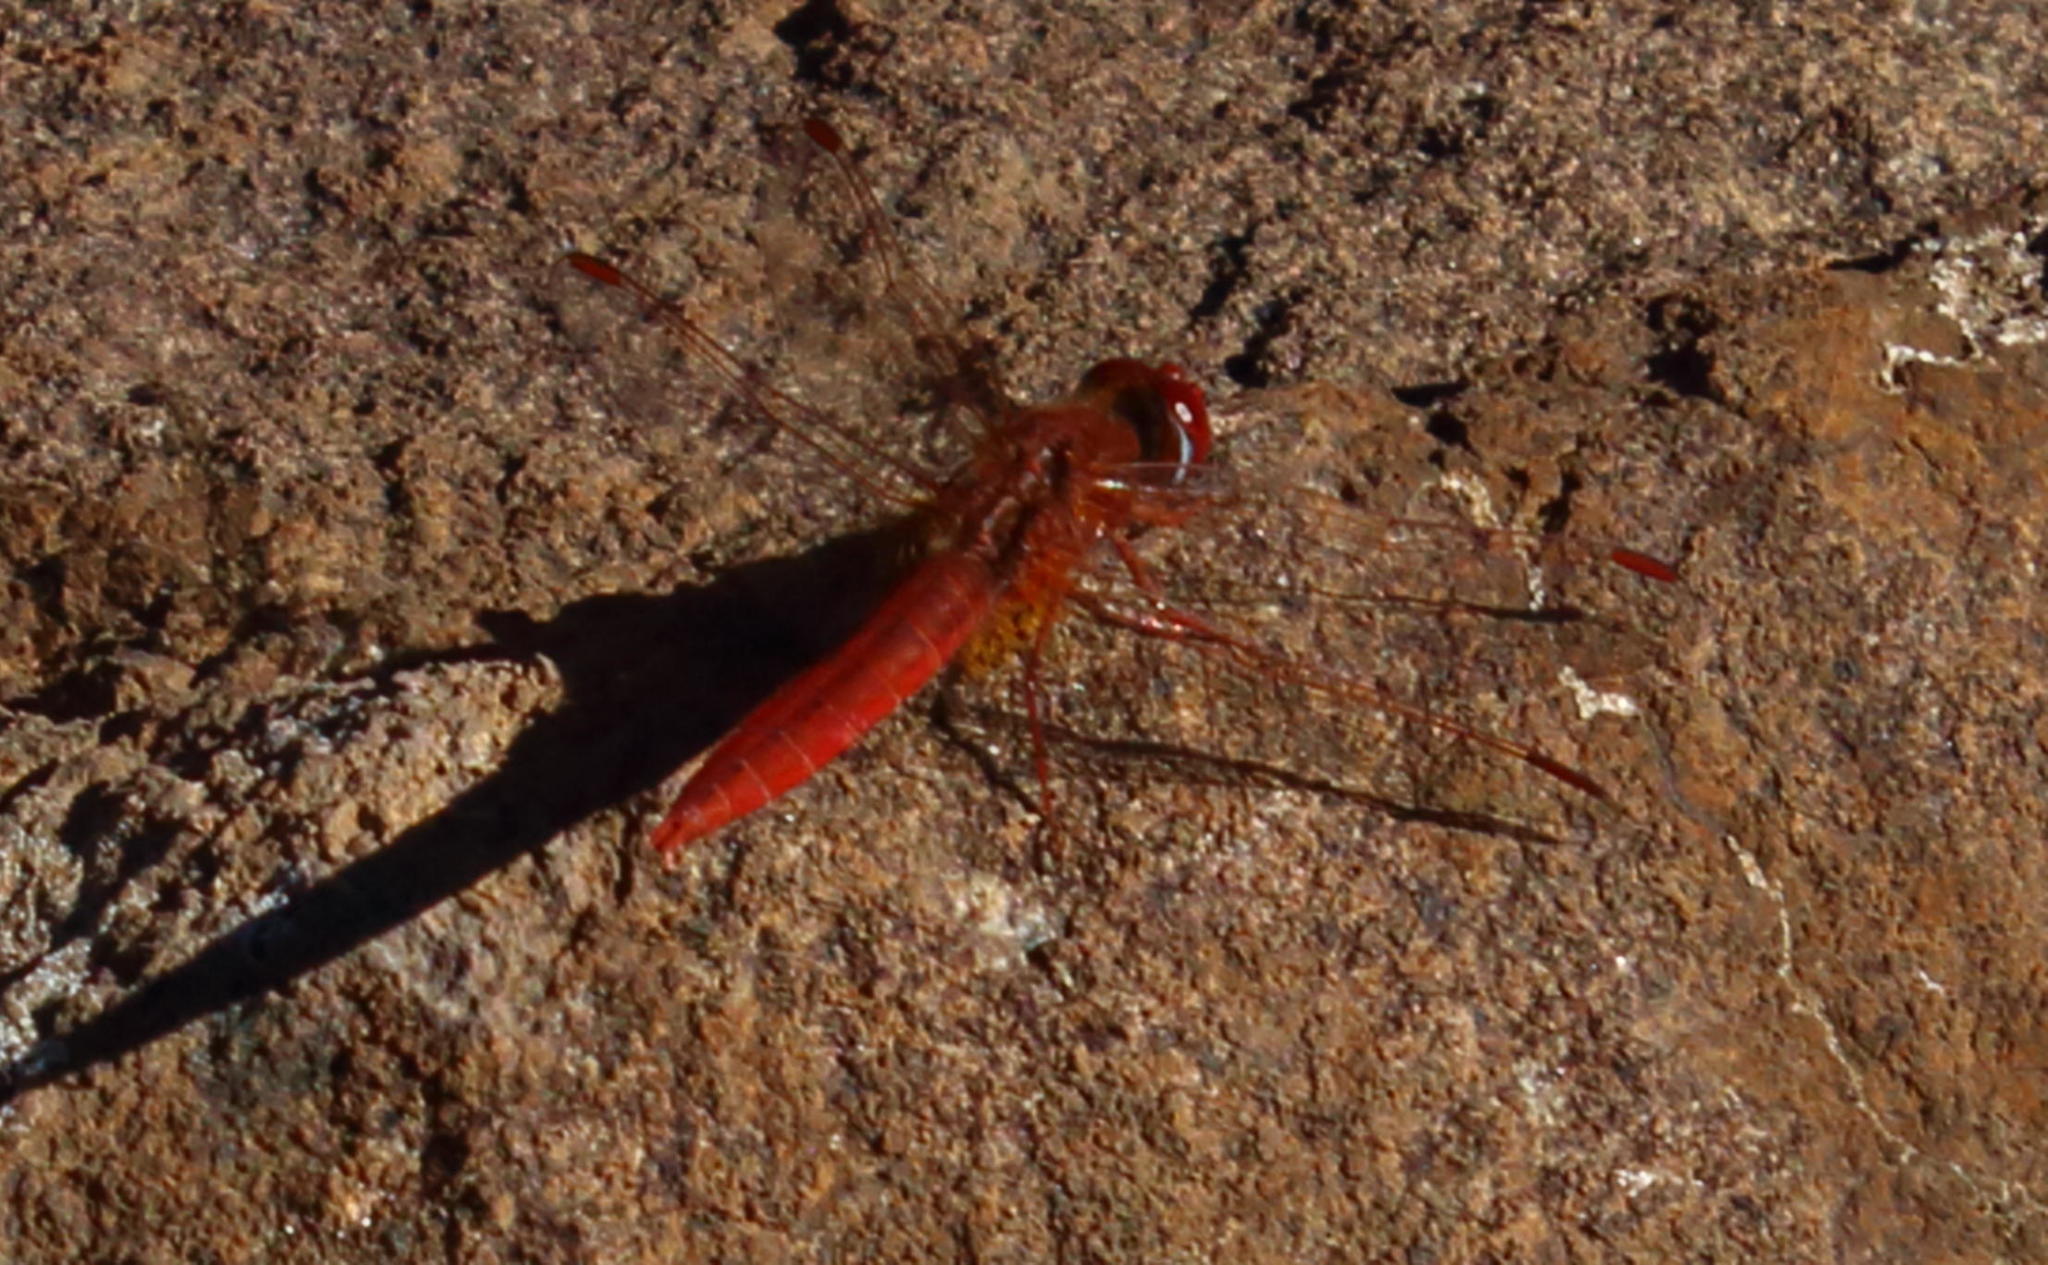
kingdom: Animalia
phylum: Arthropoda
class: Insecta
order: Odonata
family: Libellulidae
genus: Crocothemis
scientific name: Crocothemis erythraea
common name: Scarlet dragonfly
